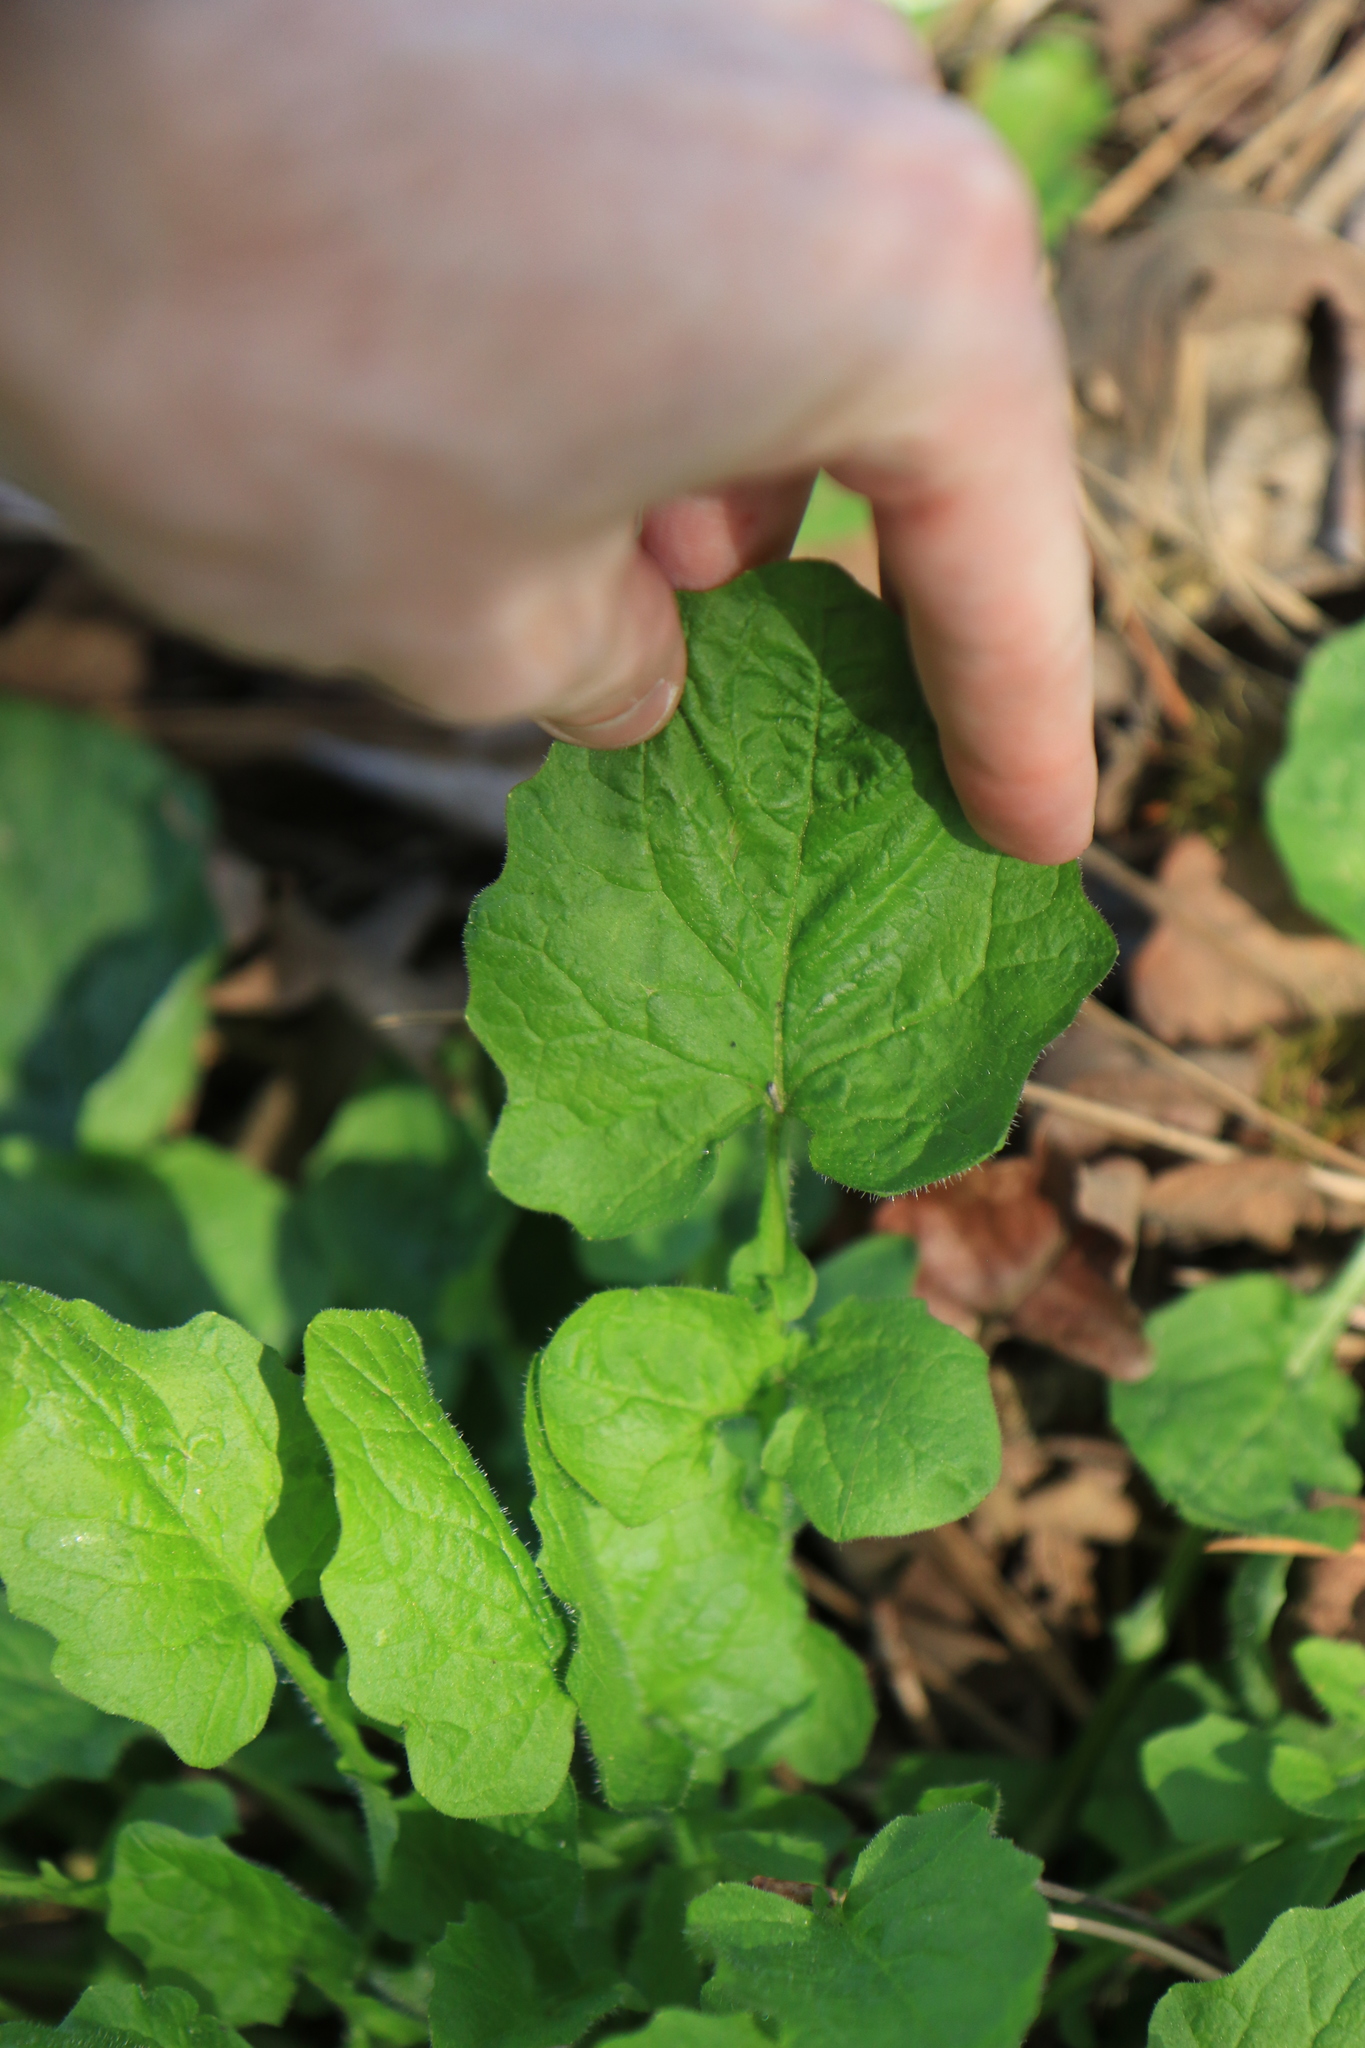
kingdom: Plantae
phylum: Tracheophyta
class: Magnoliopsida
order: Asterales
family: Asteraceae
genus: Lapsana
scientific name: Lapsana communis
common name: Nipplewort
